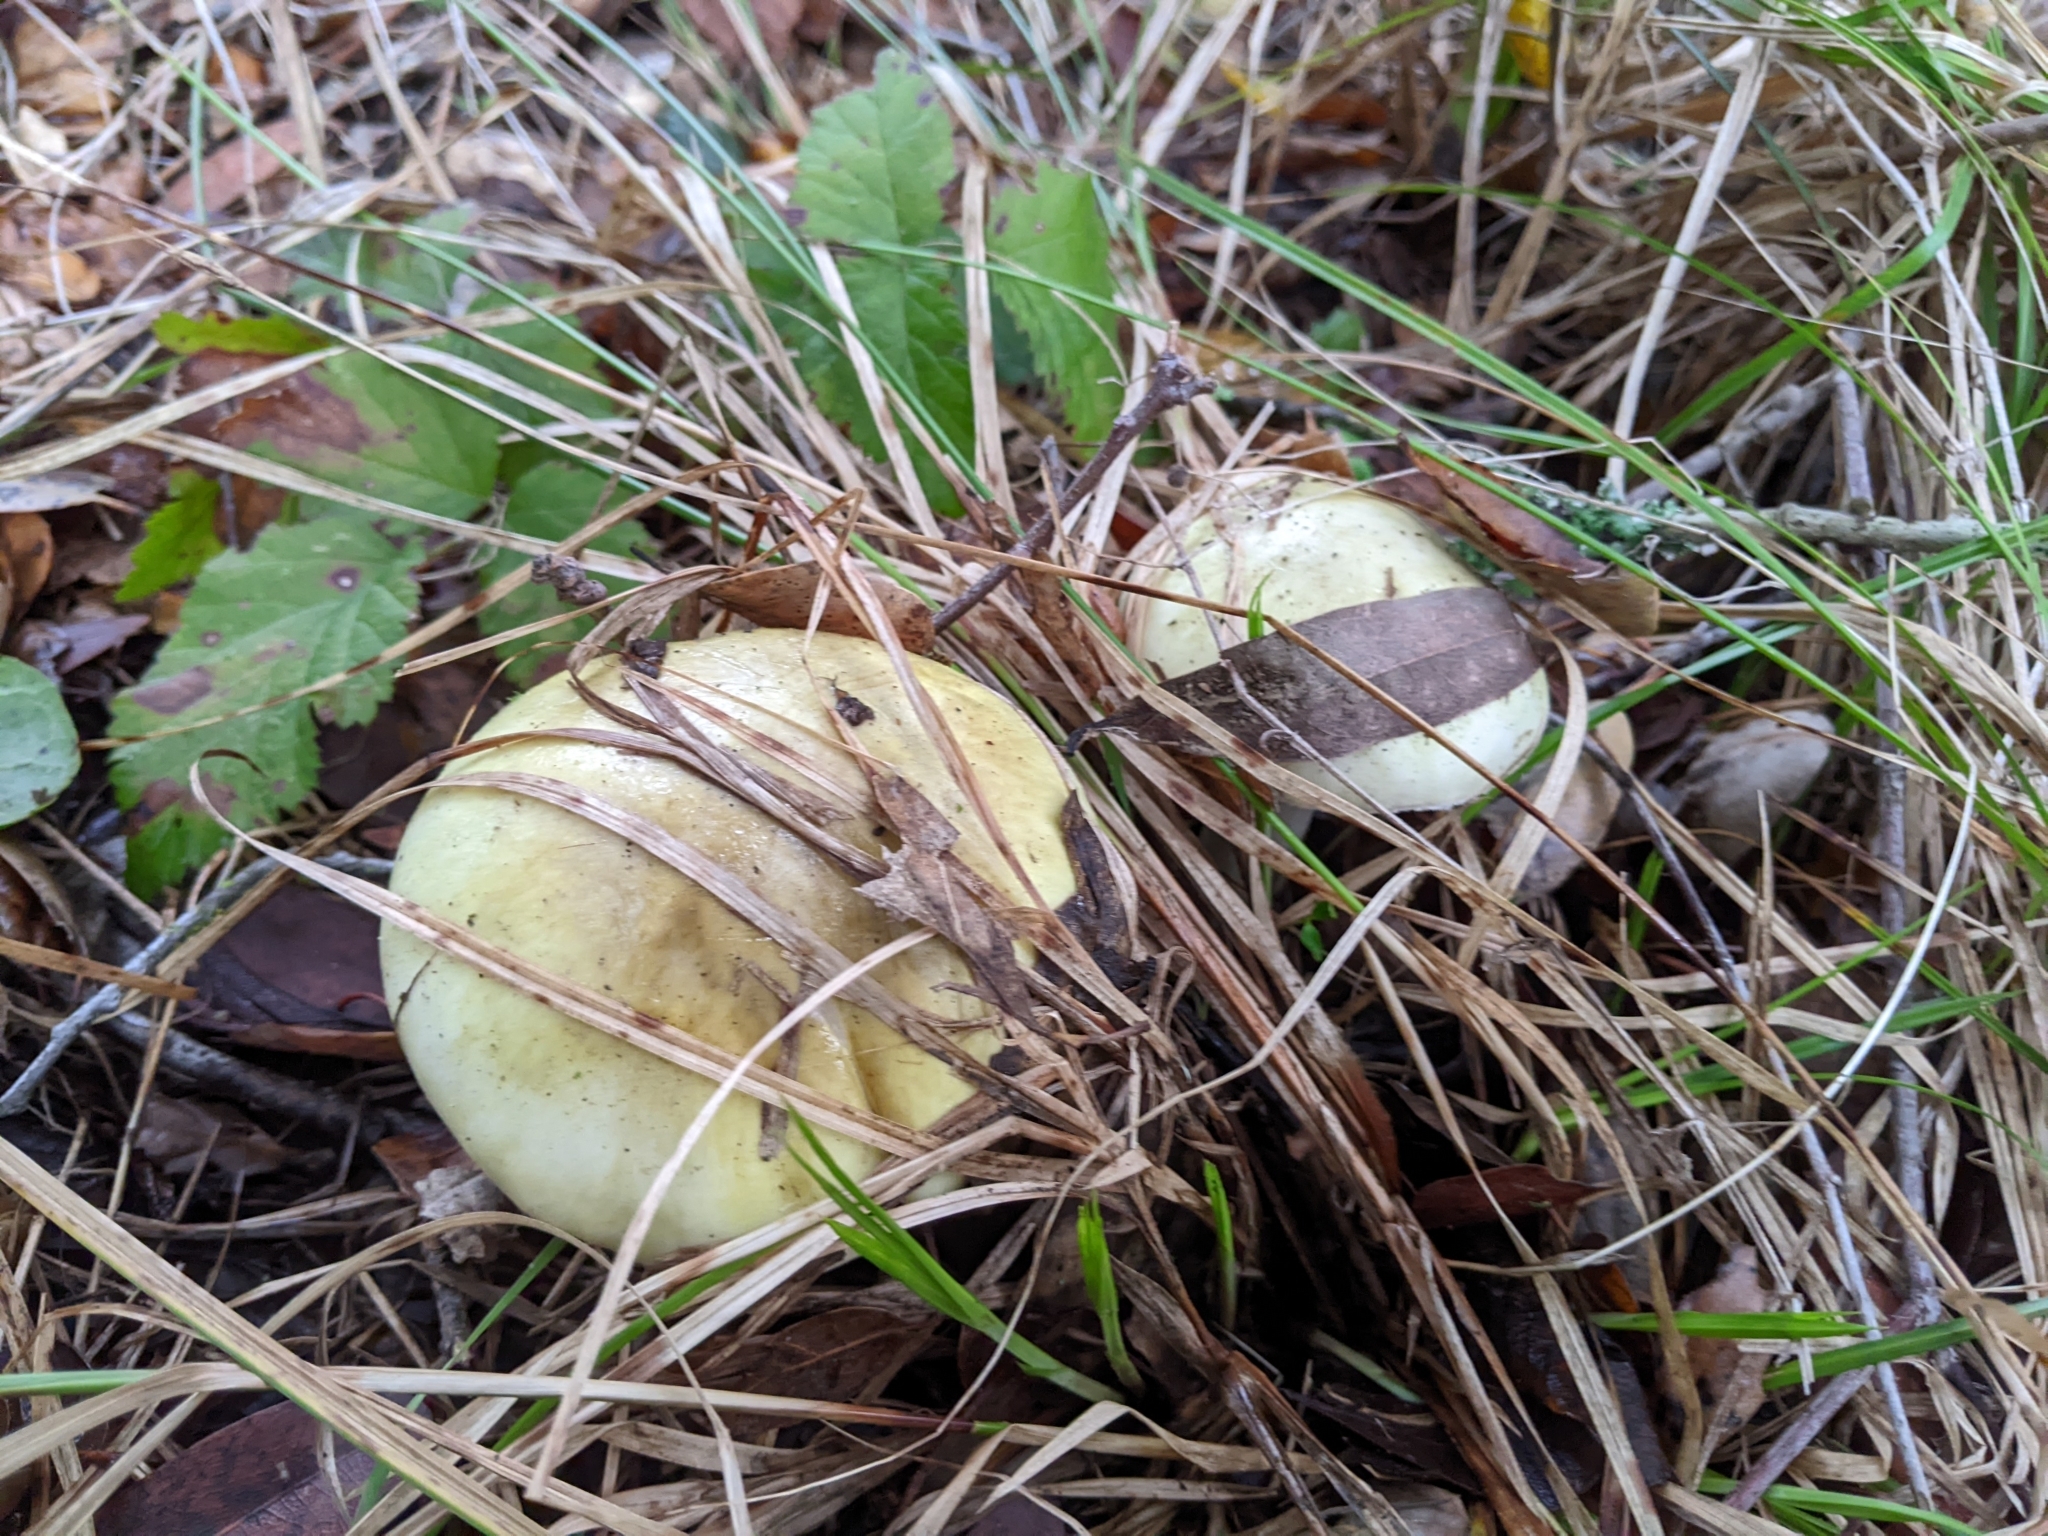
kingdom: Fungi
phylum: Basidiomycota
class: Agaricomycetes
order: Agaricales
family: Amanitaceae
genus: Amanita
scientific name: Amanita phalloides
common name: Death cap
